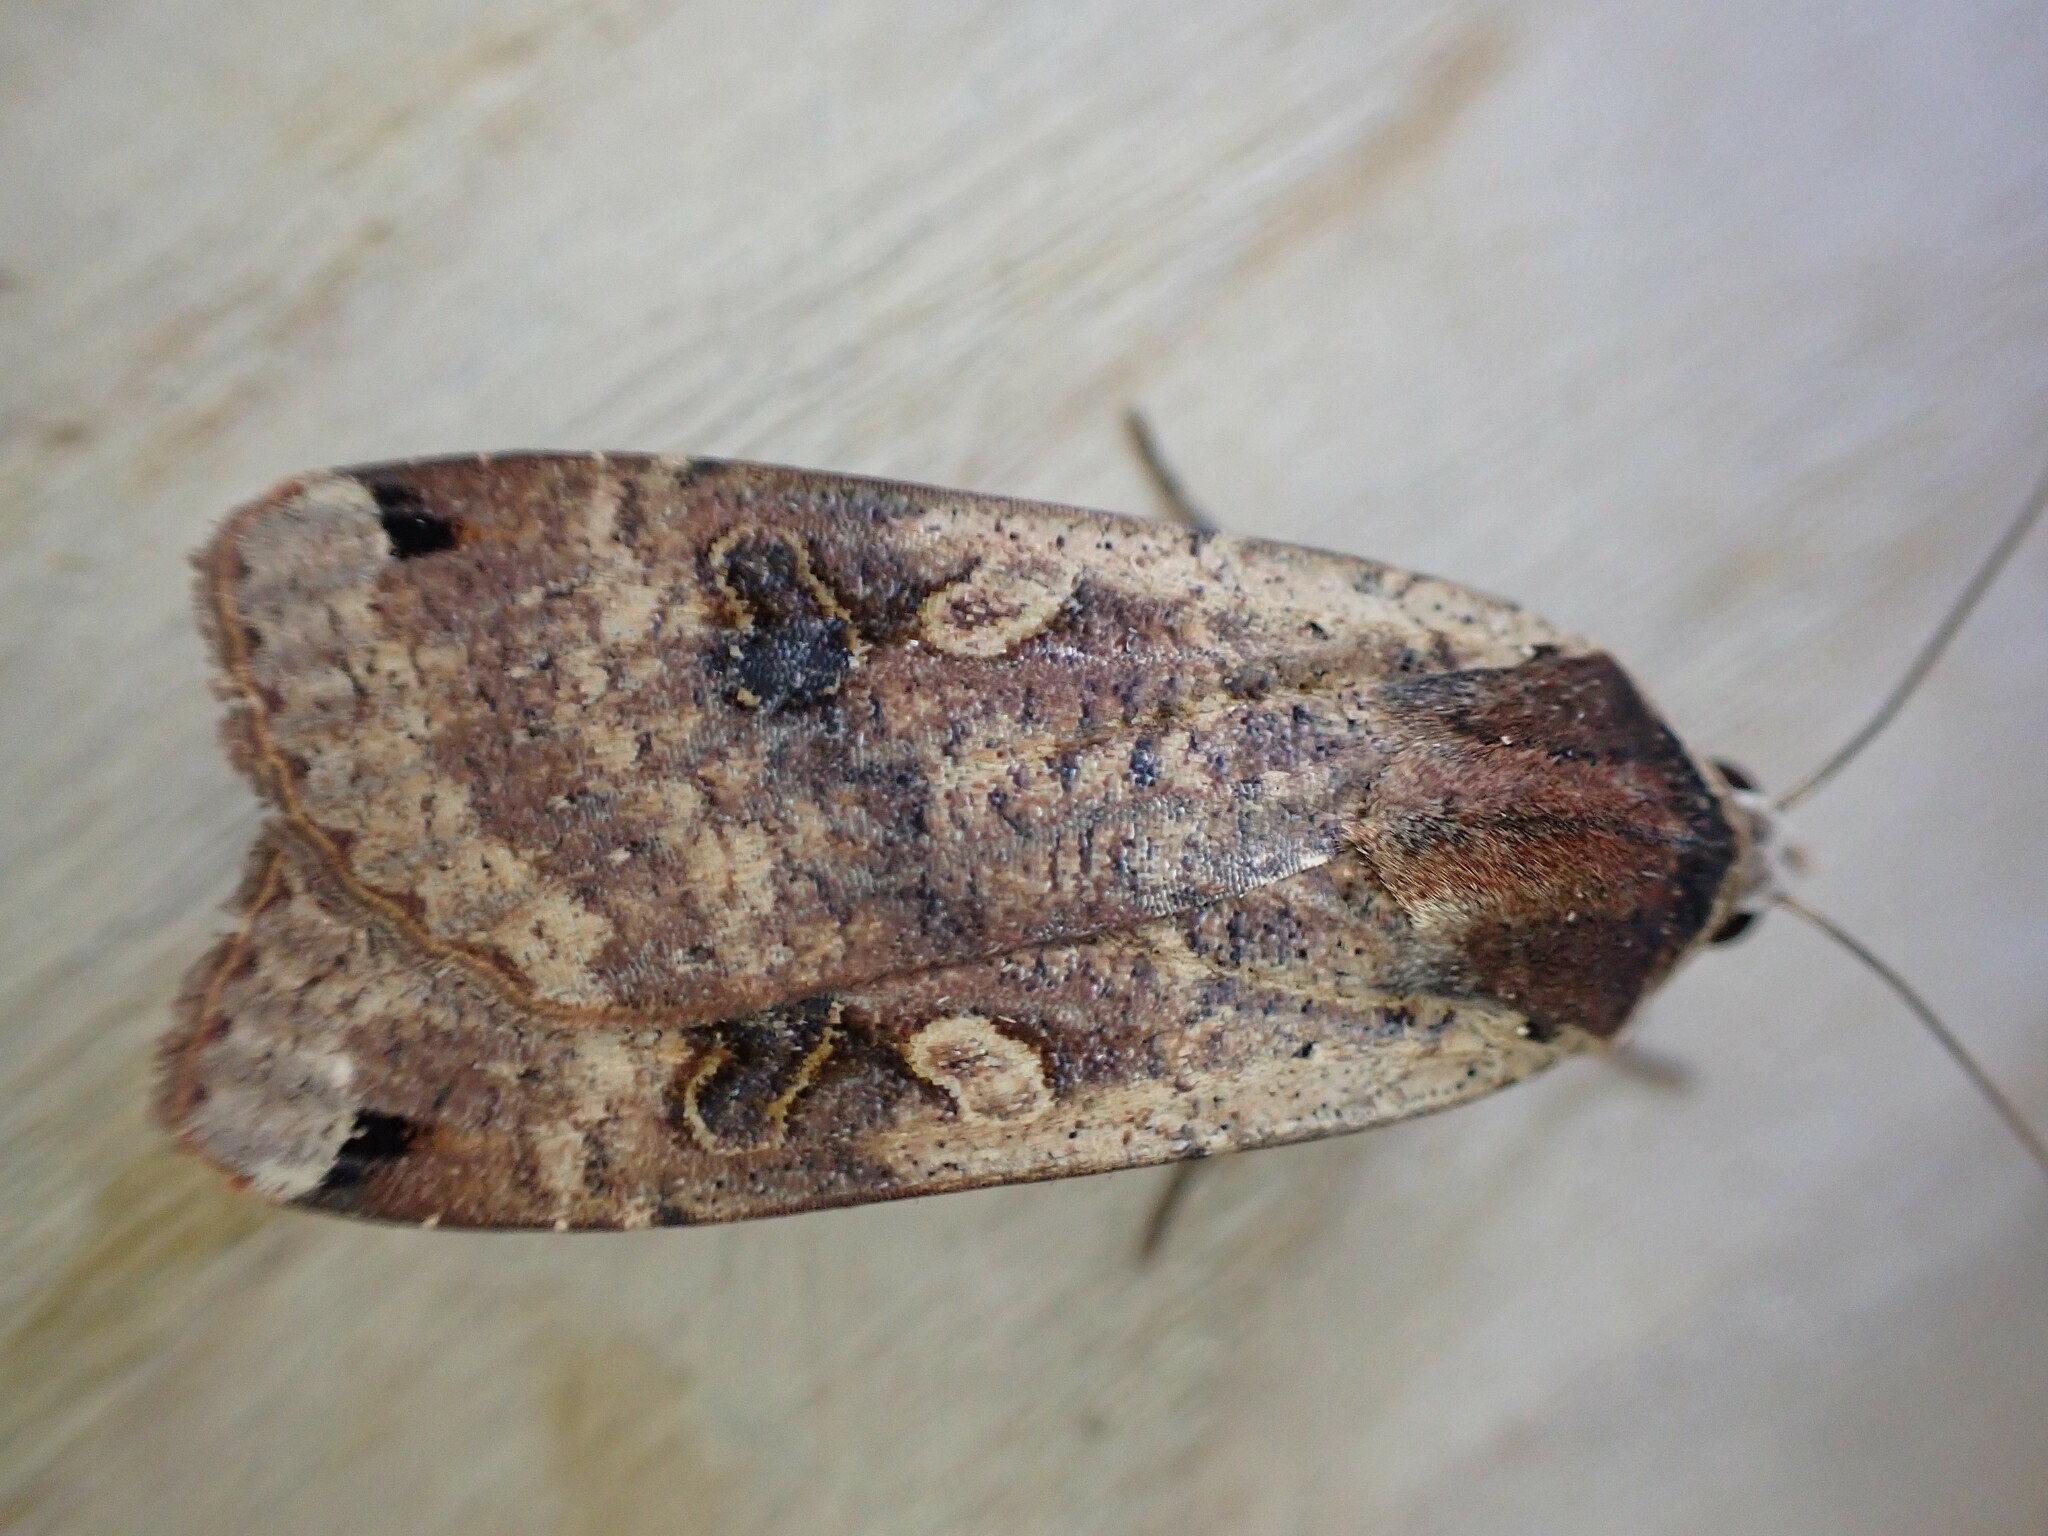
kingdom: Animalia
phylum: Arthropoda
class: Insecta
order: Lepidoptera
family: Noctuidae
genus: Noctua
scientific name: Noctua pronuba
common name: Large yellow underwing
